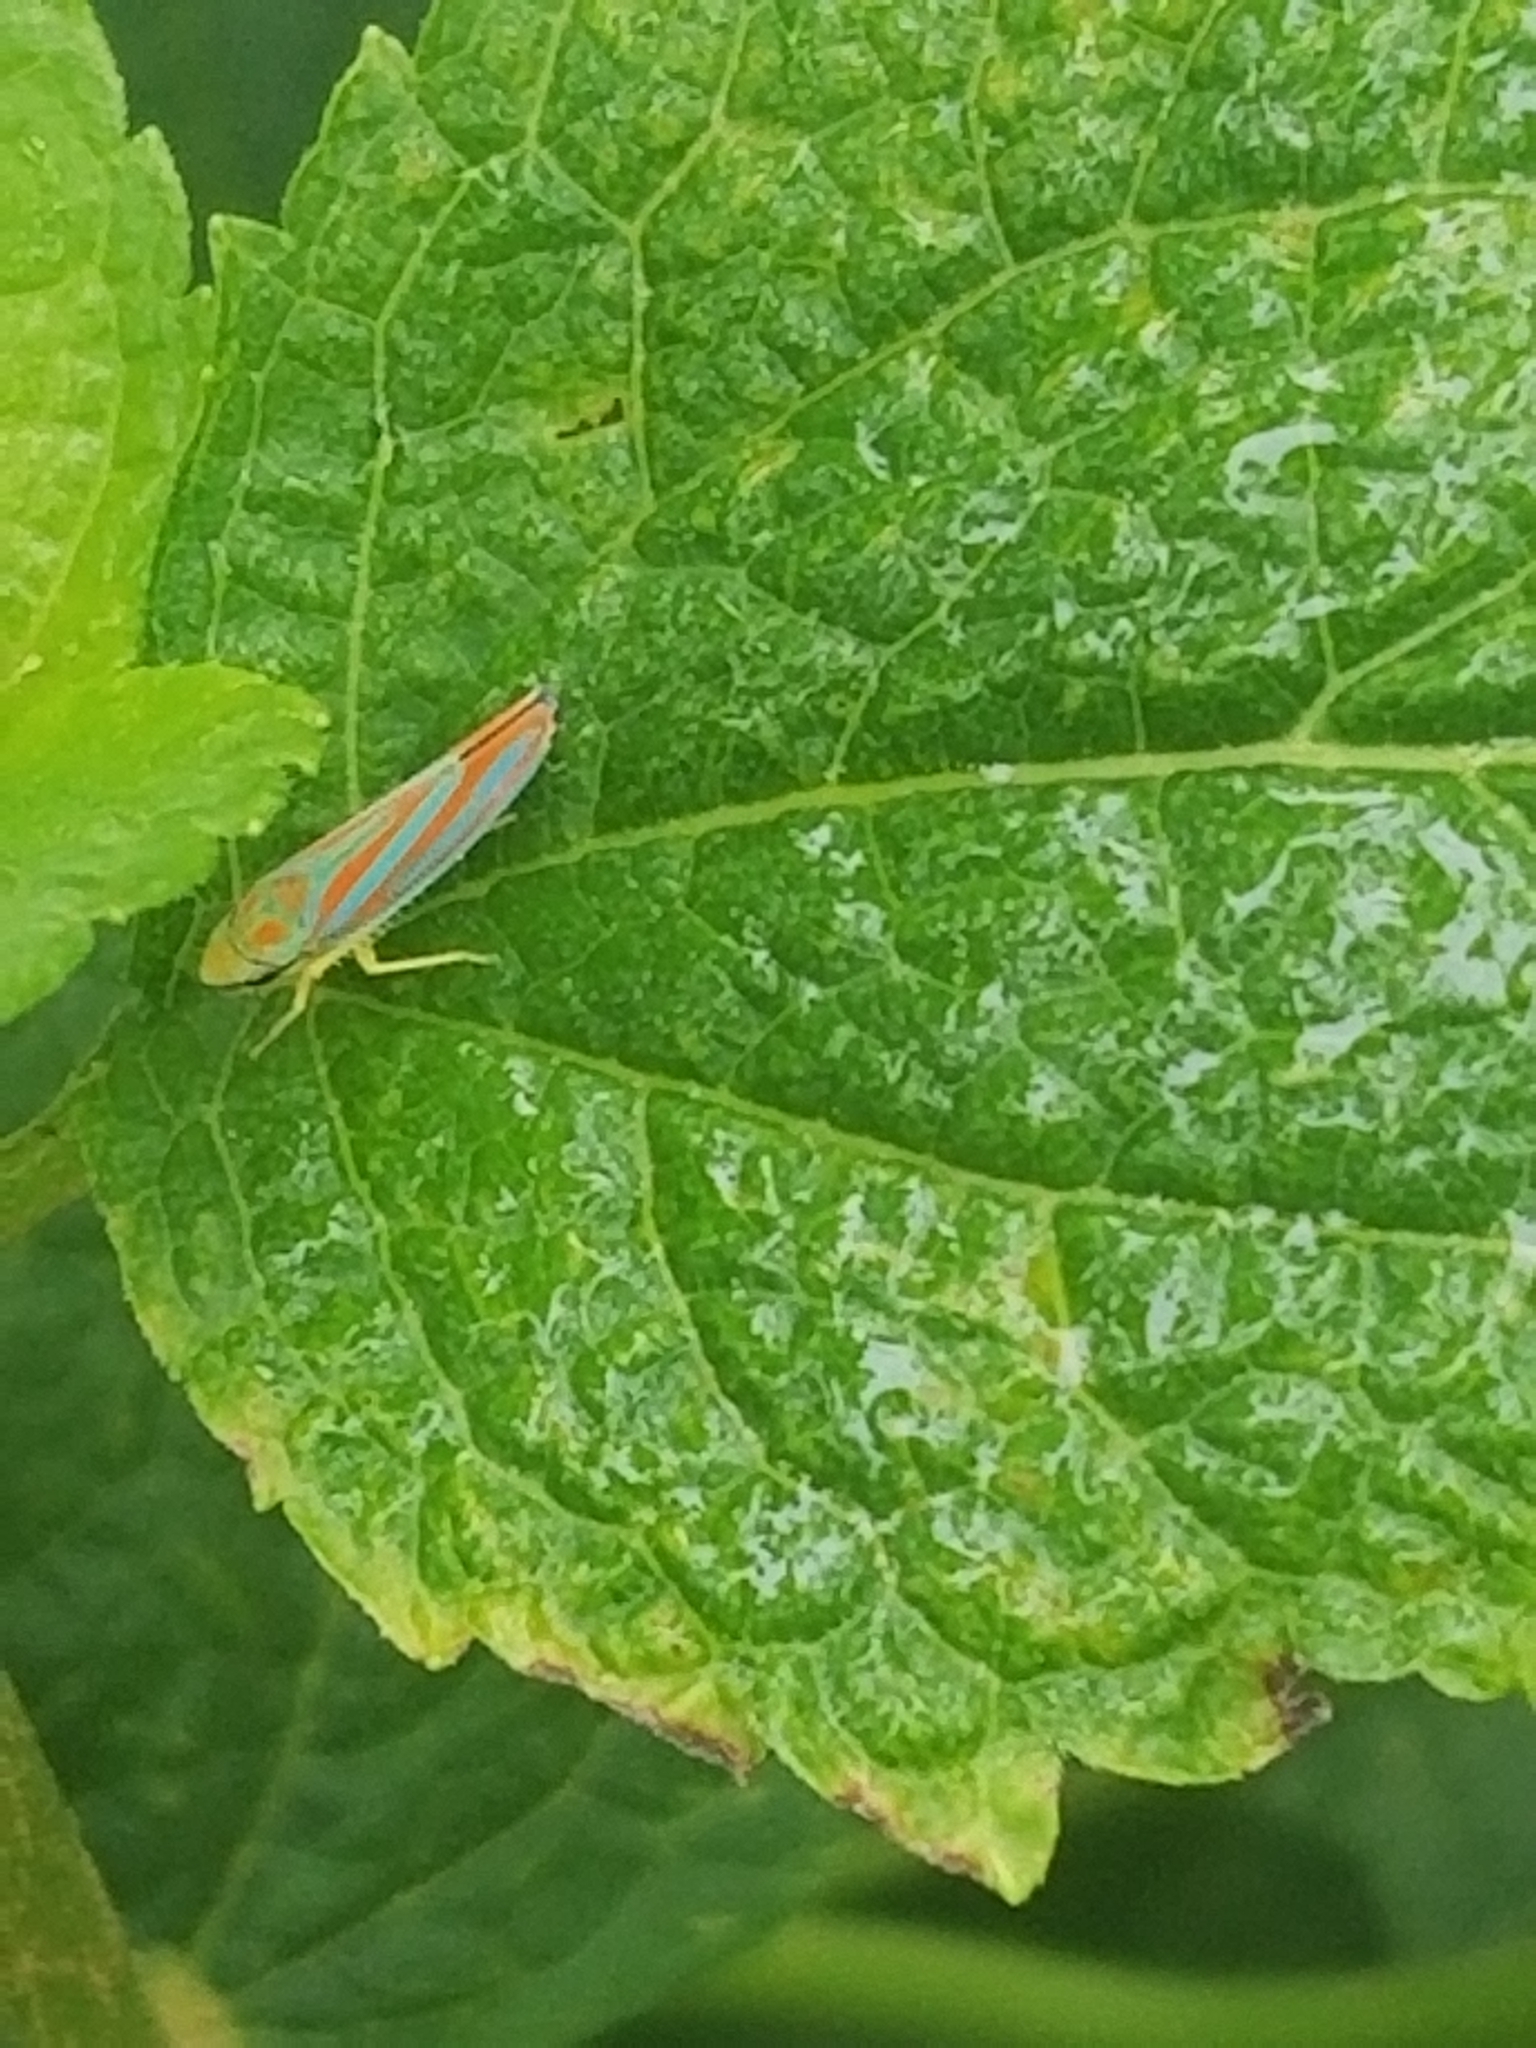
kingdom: Animalia
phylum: Arthropoda
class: Insecta
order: Hemiptera
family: Cicadellidae
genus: Graphocephala
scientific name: Graphocephala coccinea
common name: Candy-striped leafhopper
